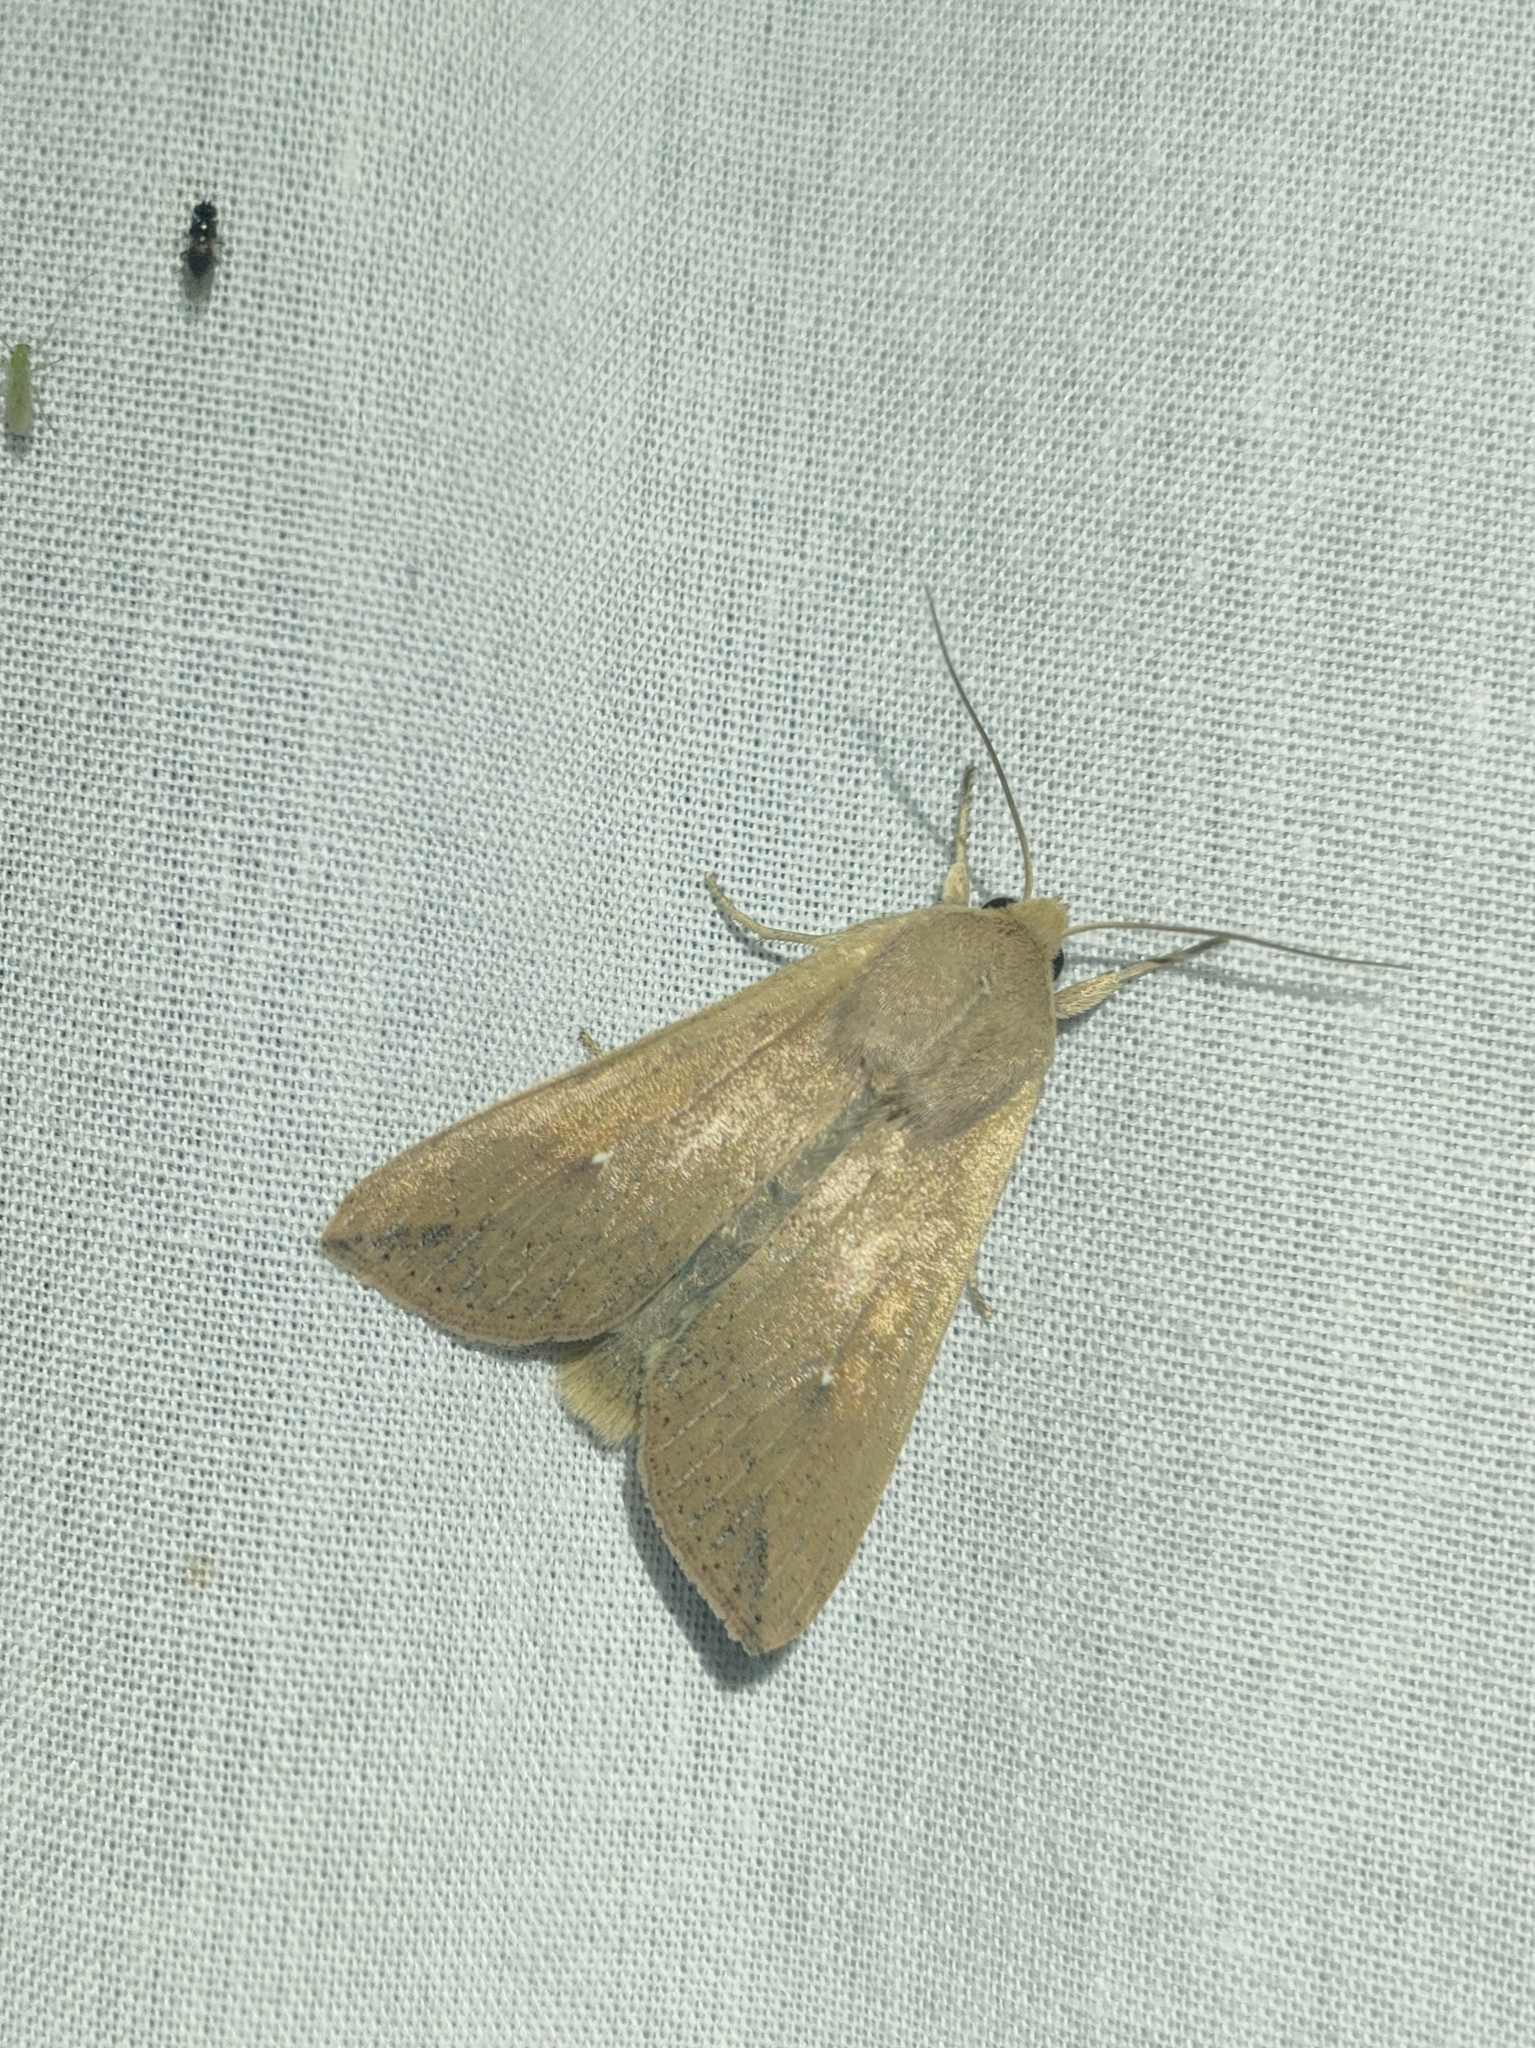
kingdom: Animalia
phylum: Arthropoda
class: Insecta
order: Lepidoptera
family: Noctuidae
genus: Mythimna
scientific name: Mythimna unipuncta
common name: White-speck
